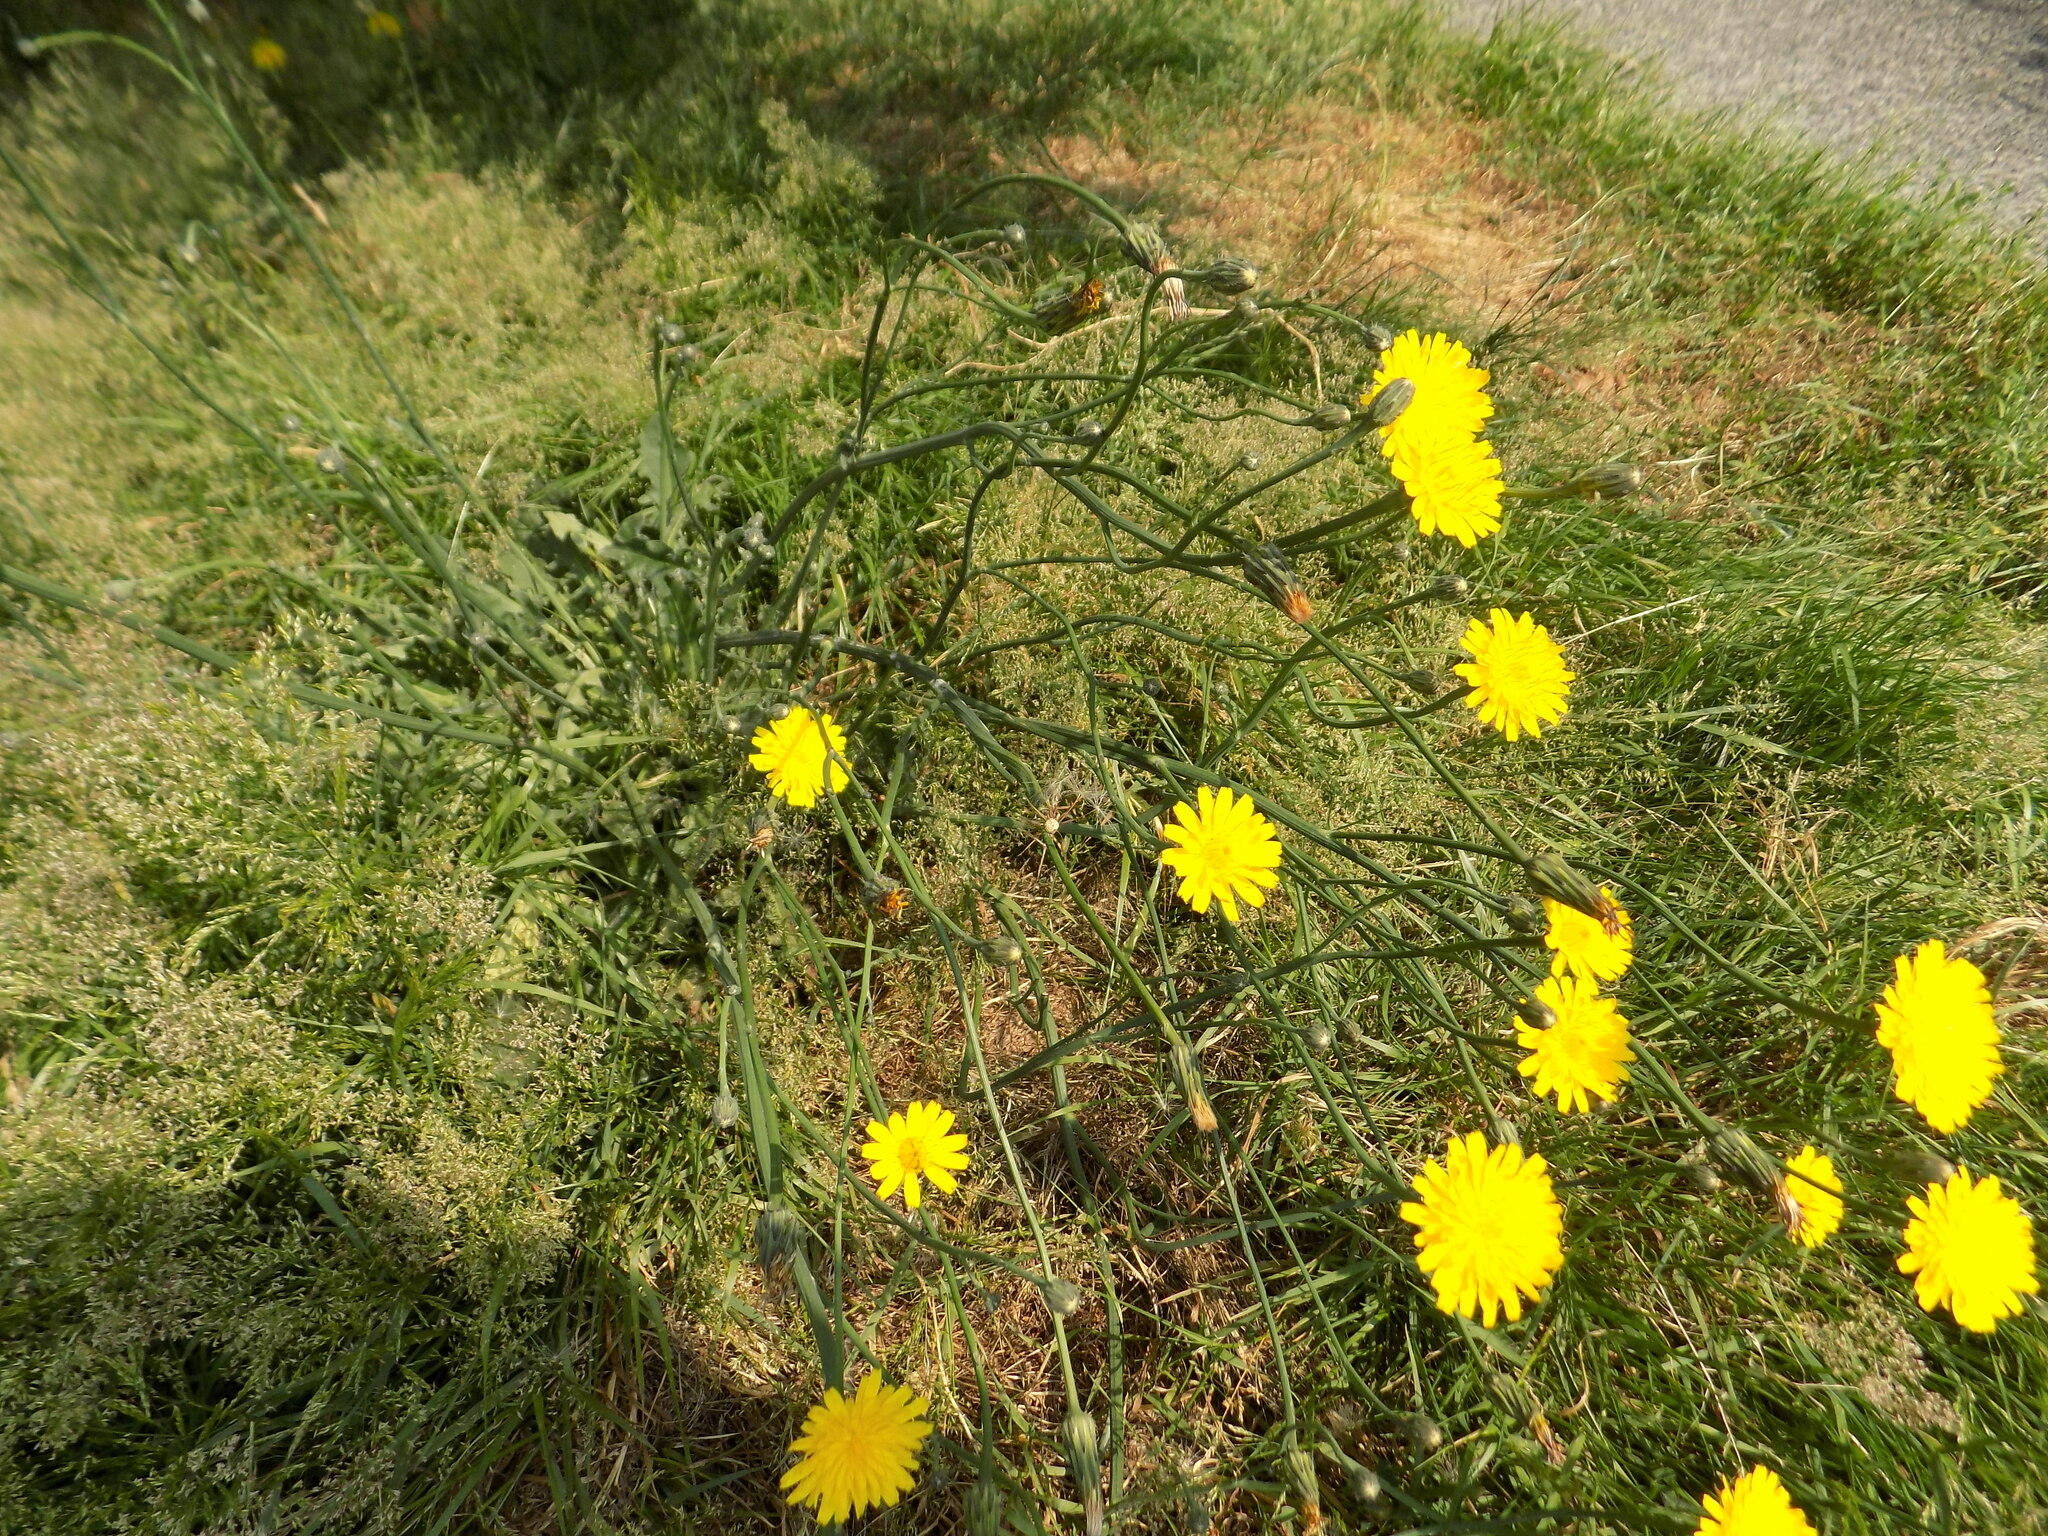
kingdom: Plantae
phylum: Tracheophyta
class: Magnoliopsida
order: Asterales
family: Asteraceae
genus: Hypochaeris
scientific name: Hypochaeris radicata
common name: Flatweed
